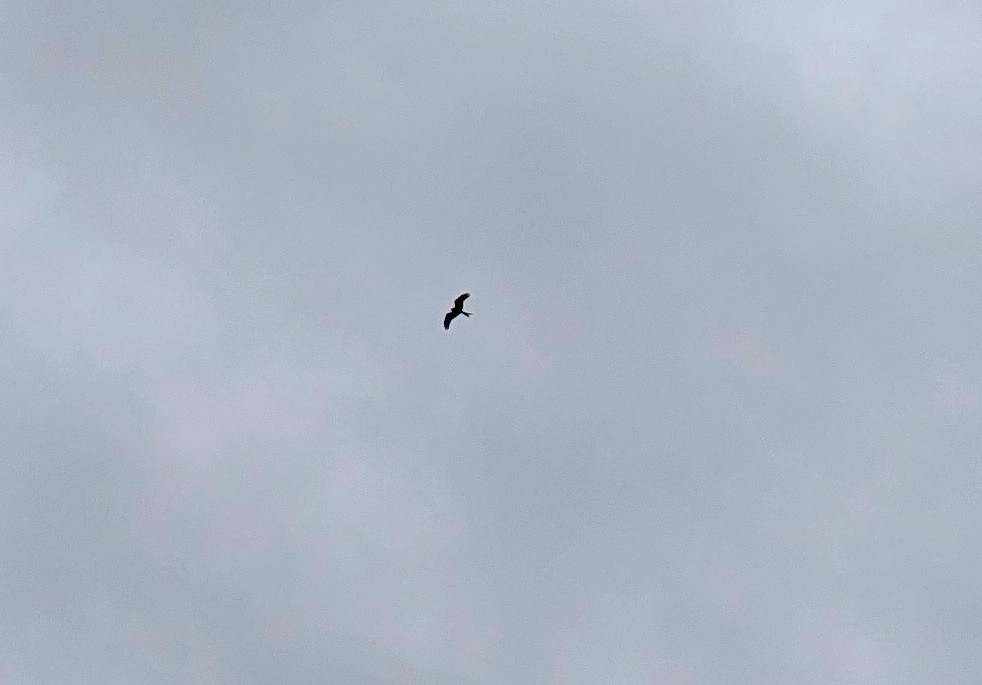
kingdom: Animalia
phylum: Chordata
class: Aves
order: Accipitriformes
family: Accipitridae
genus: Milvus
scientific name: Milvus milvus
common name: Red kite
